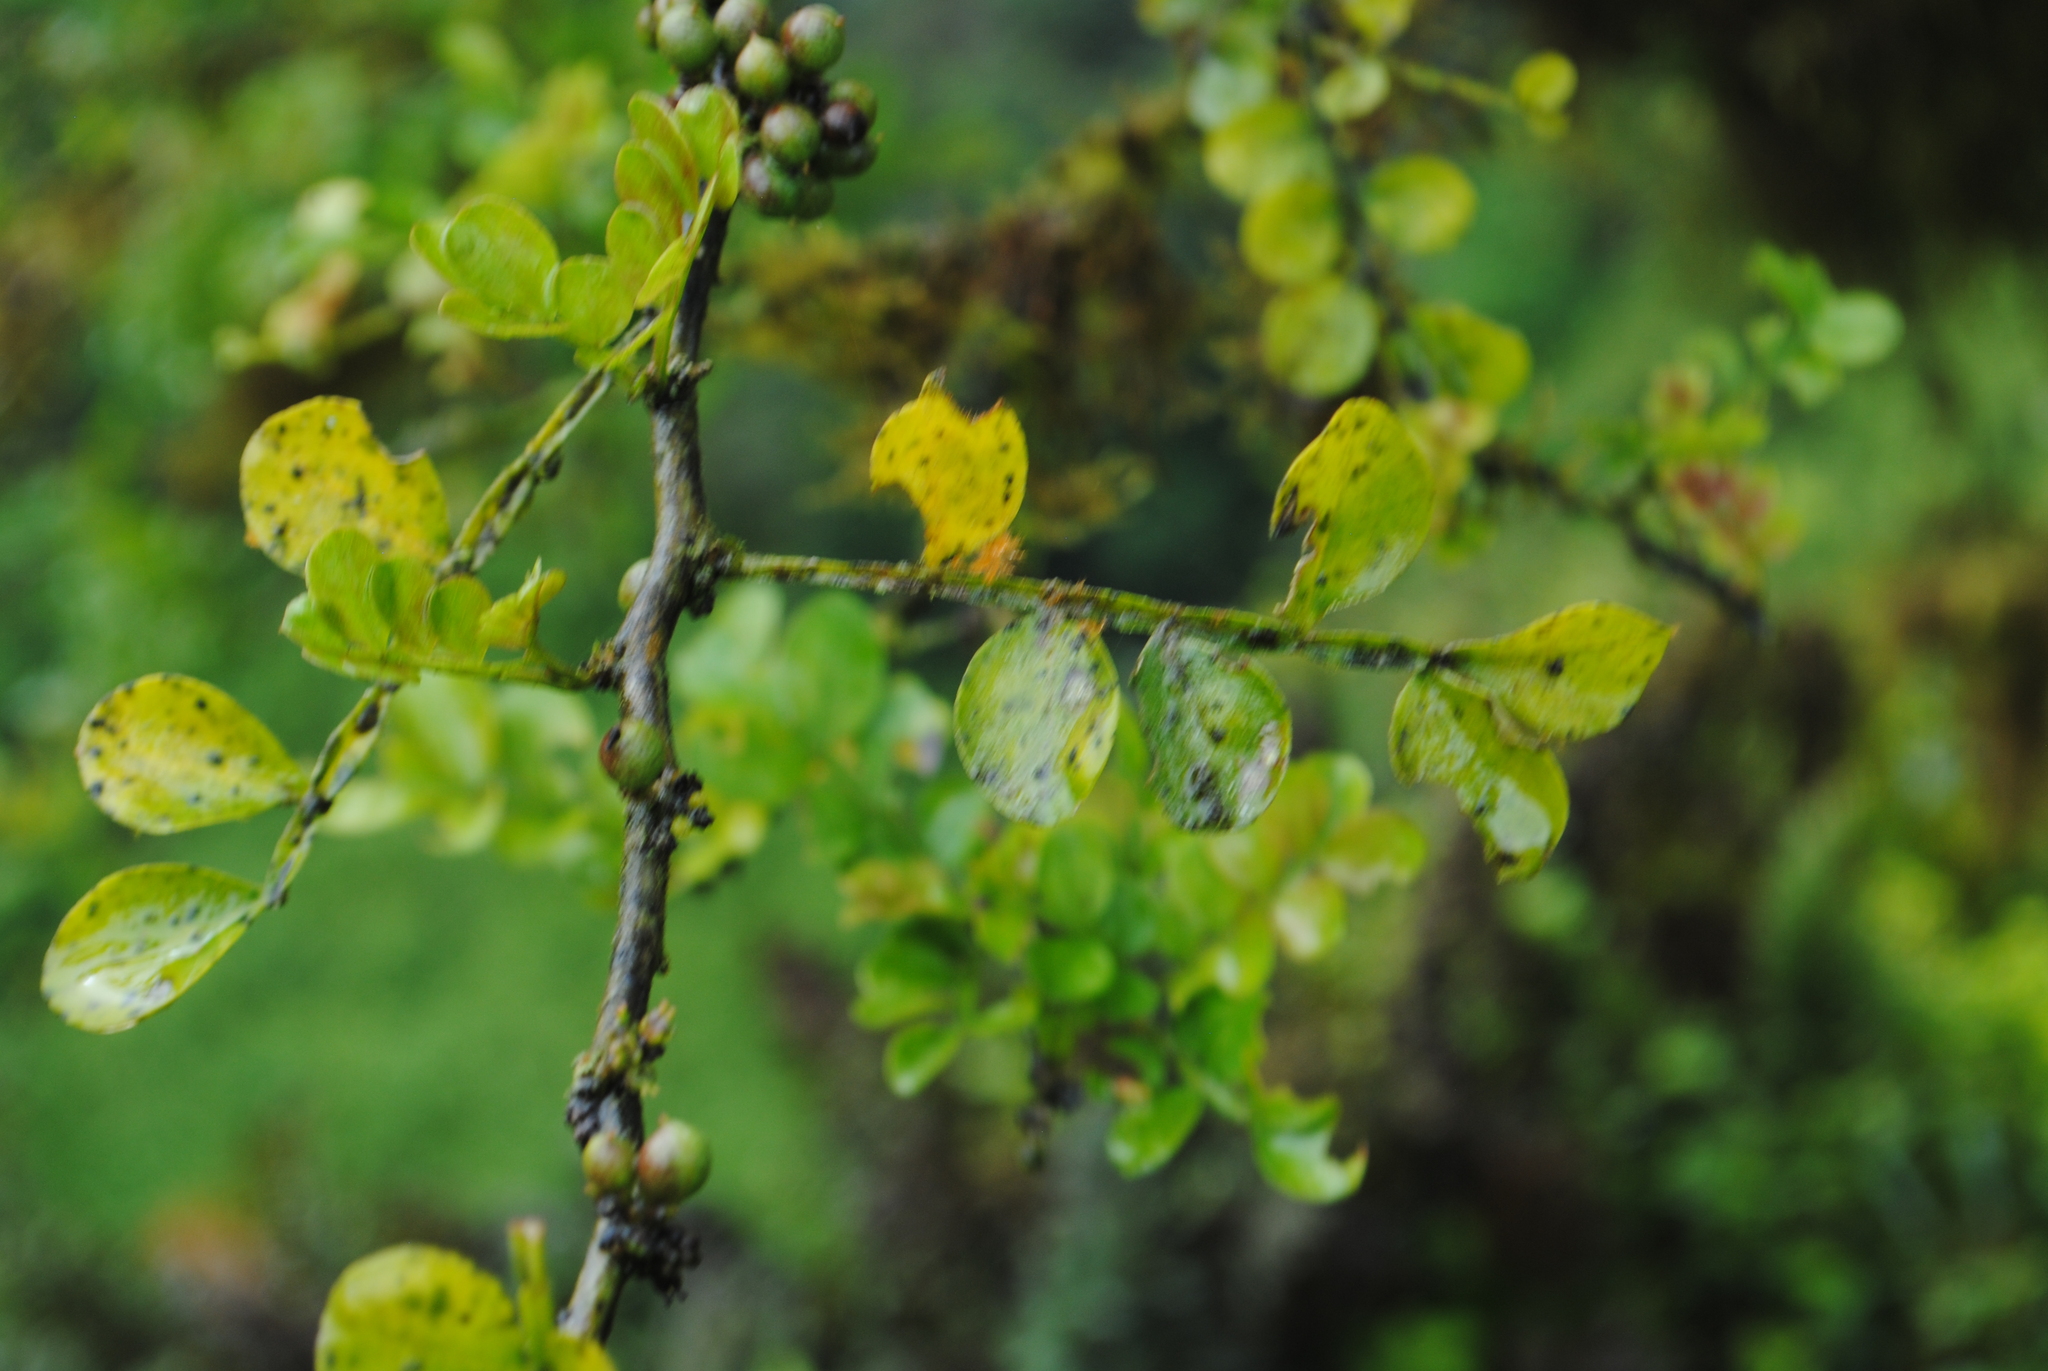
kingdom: Plantae
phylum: Tracheophyta
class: Magnoliopsida
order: Sapindales
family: Rutaceae
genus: Zanthoxylum
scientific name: Zanthoxylum fagara
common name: Lime prickly-ash
